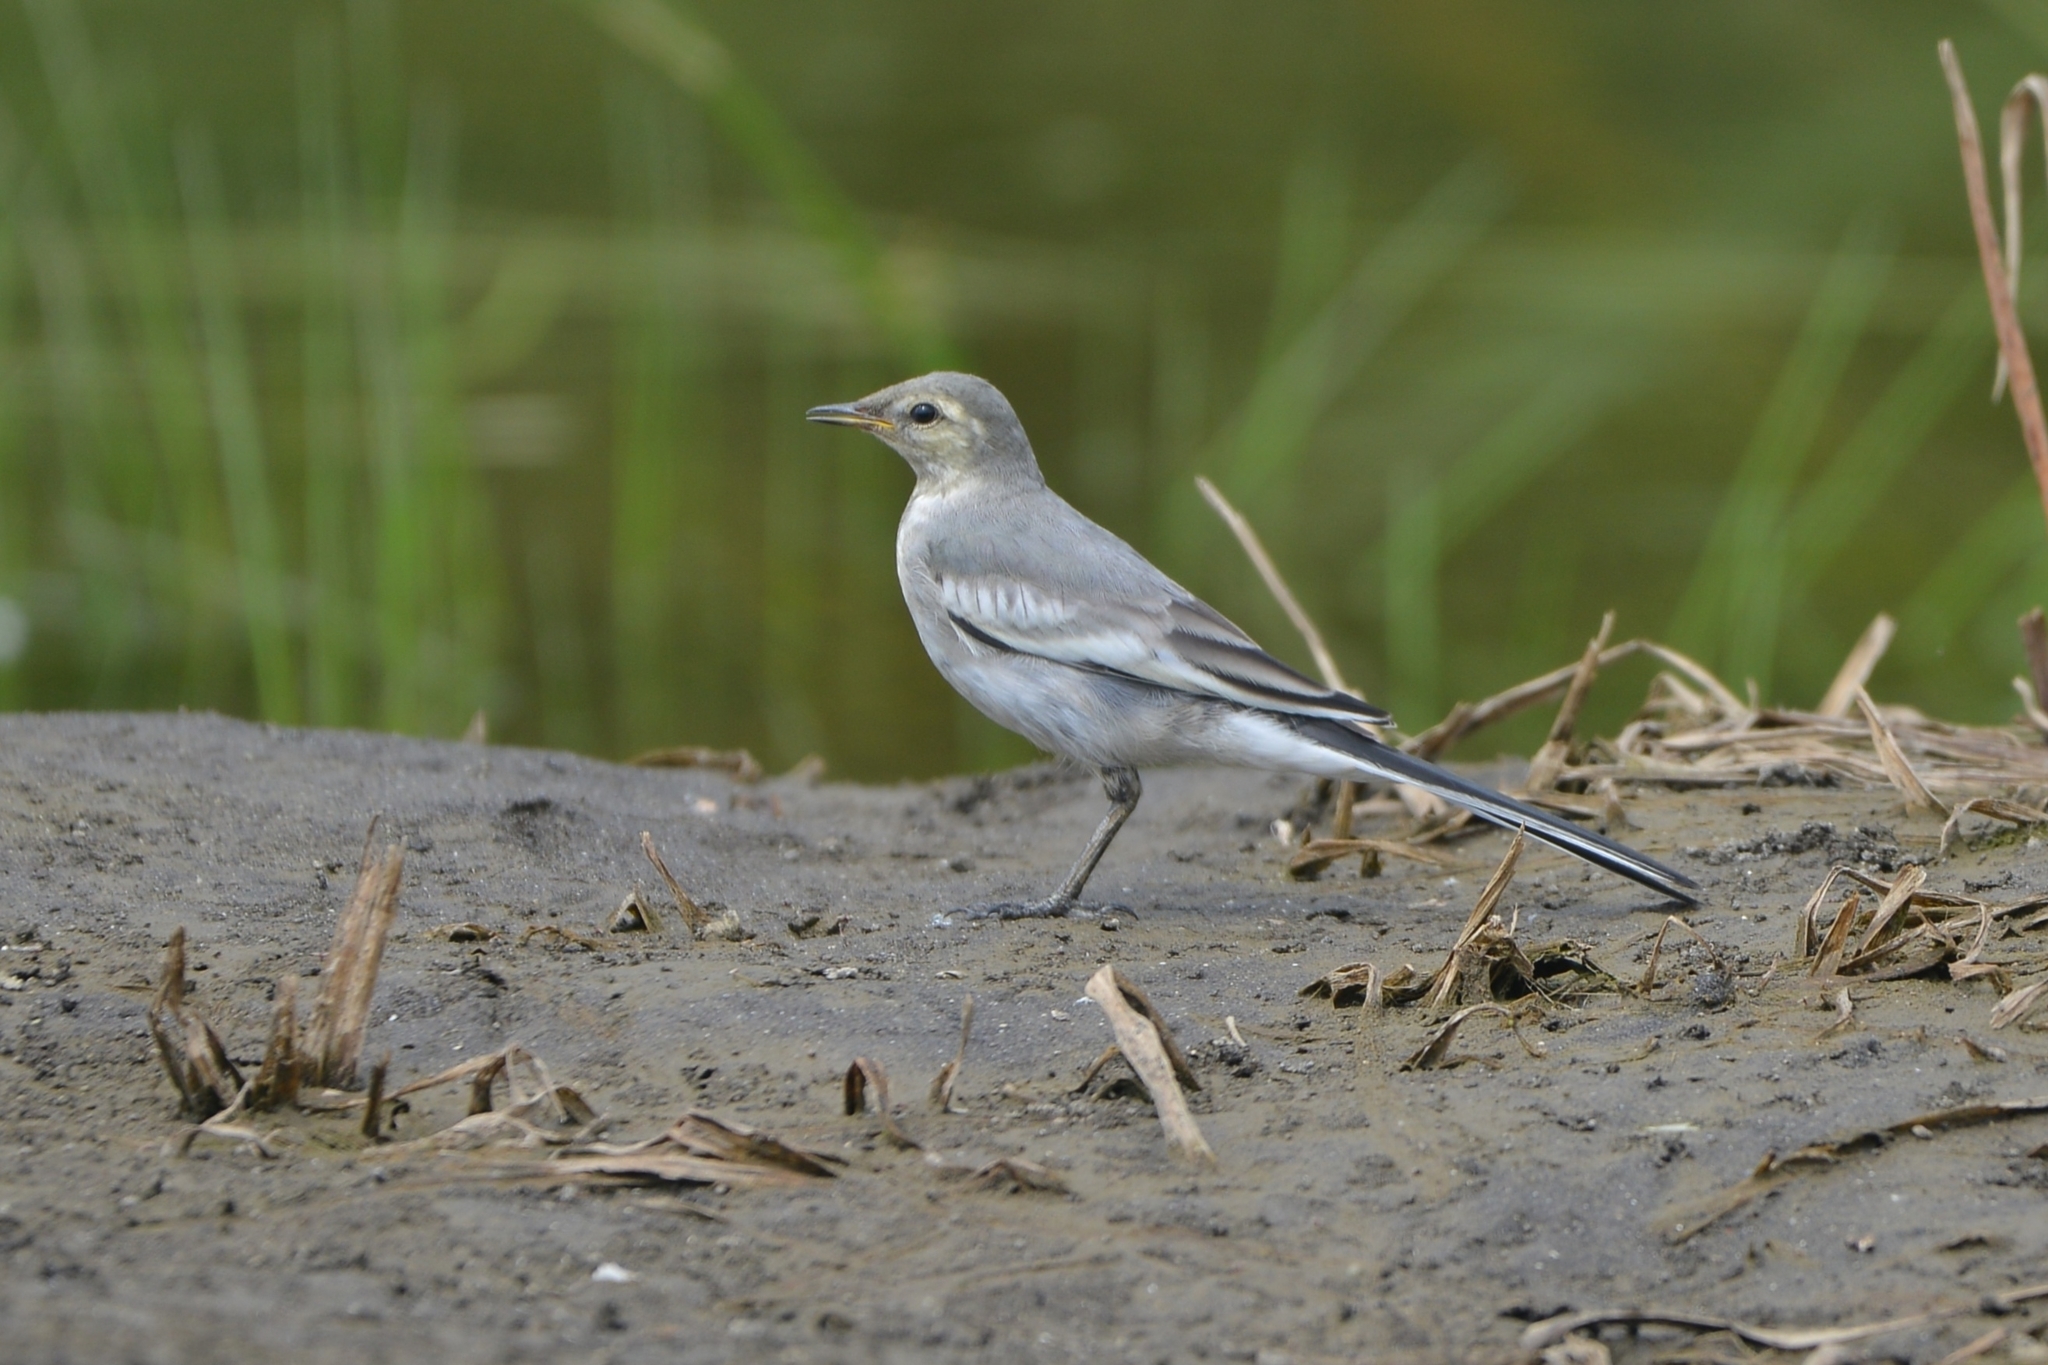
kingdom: Animalia
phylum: Chordata
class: Aves
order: Passeriformes
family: Motacillidae
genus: Motacilla
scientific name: Motacilla alba
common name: White wagtail
